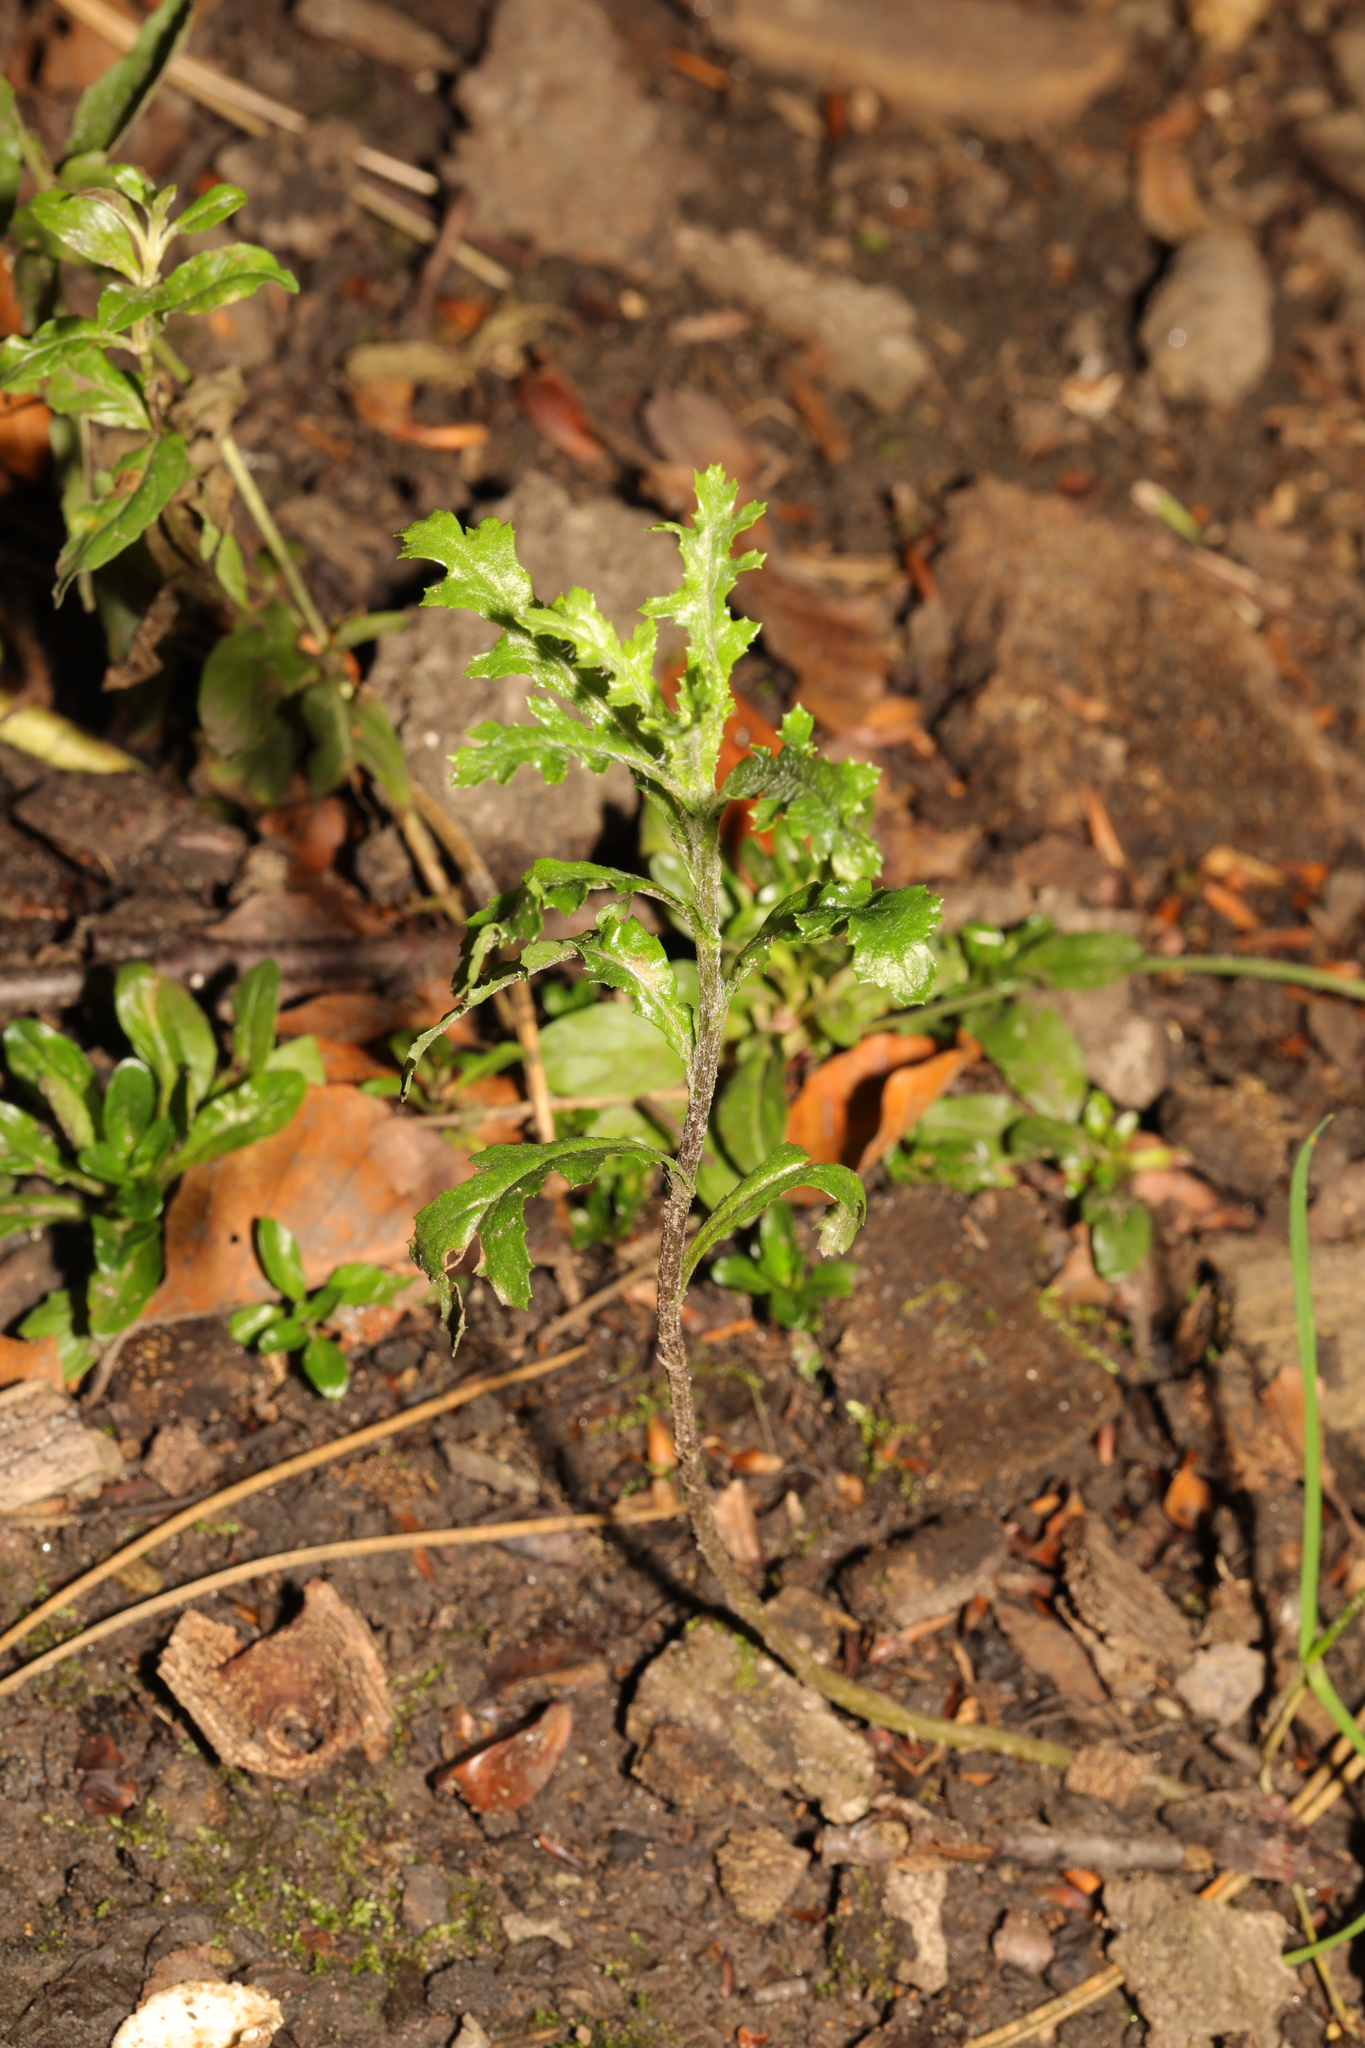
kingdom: Plantae
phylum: Tracheophyta
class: Magnoliopsida
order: Asterales
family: Asteraceae
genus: Senecio
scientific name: Senecio vulgaris
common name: Old-man-in-the-spring
